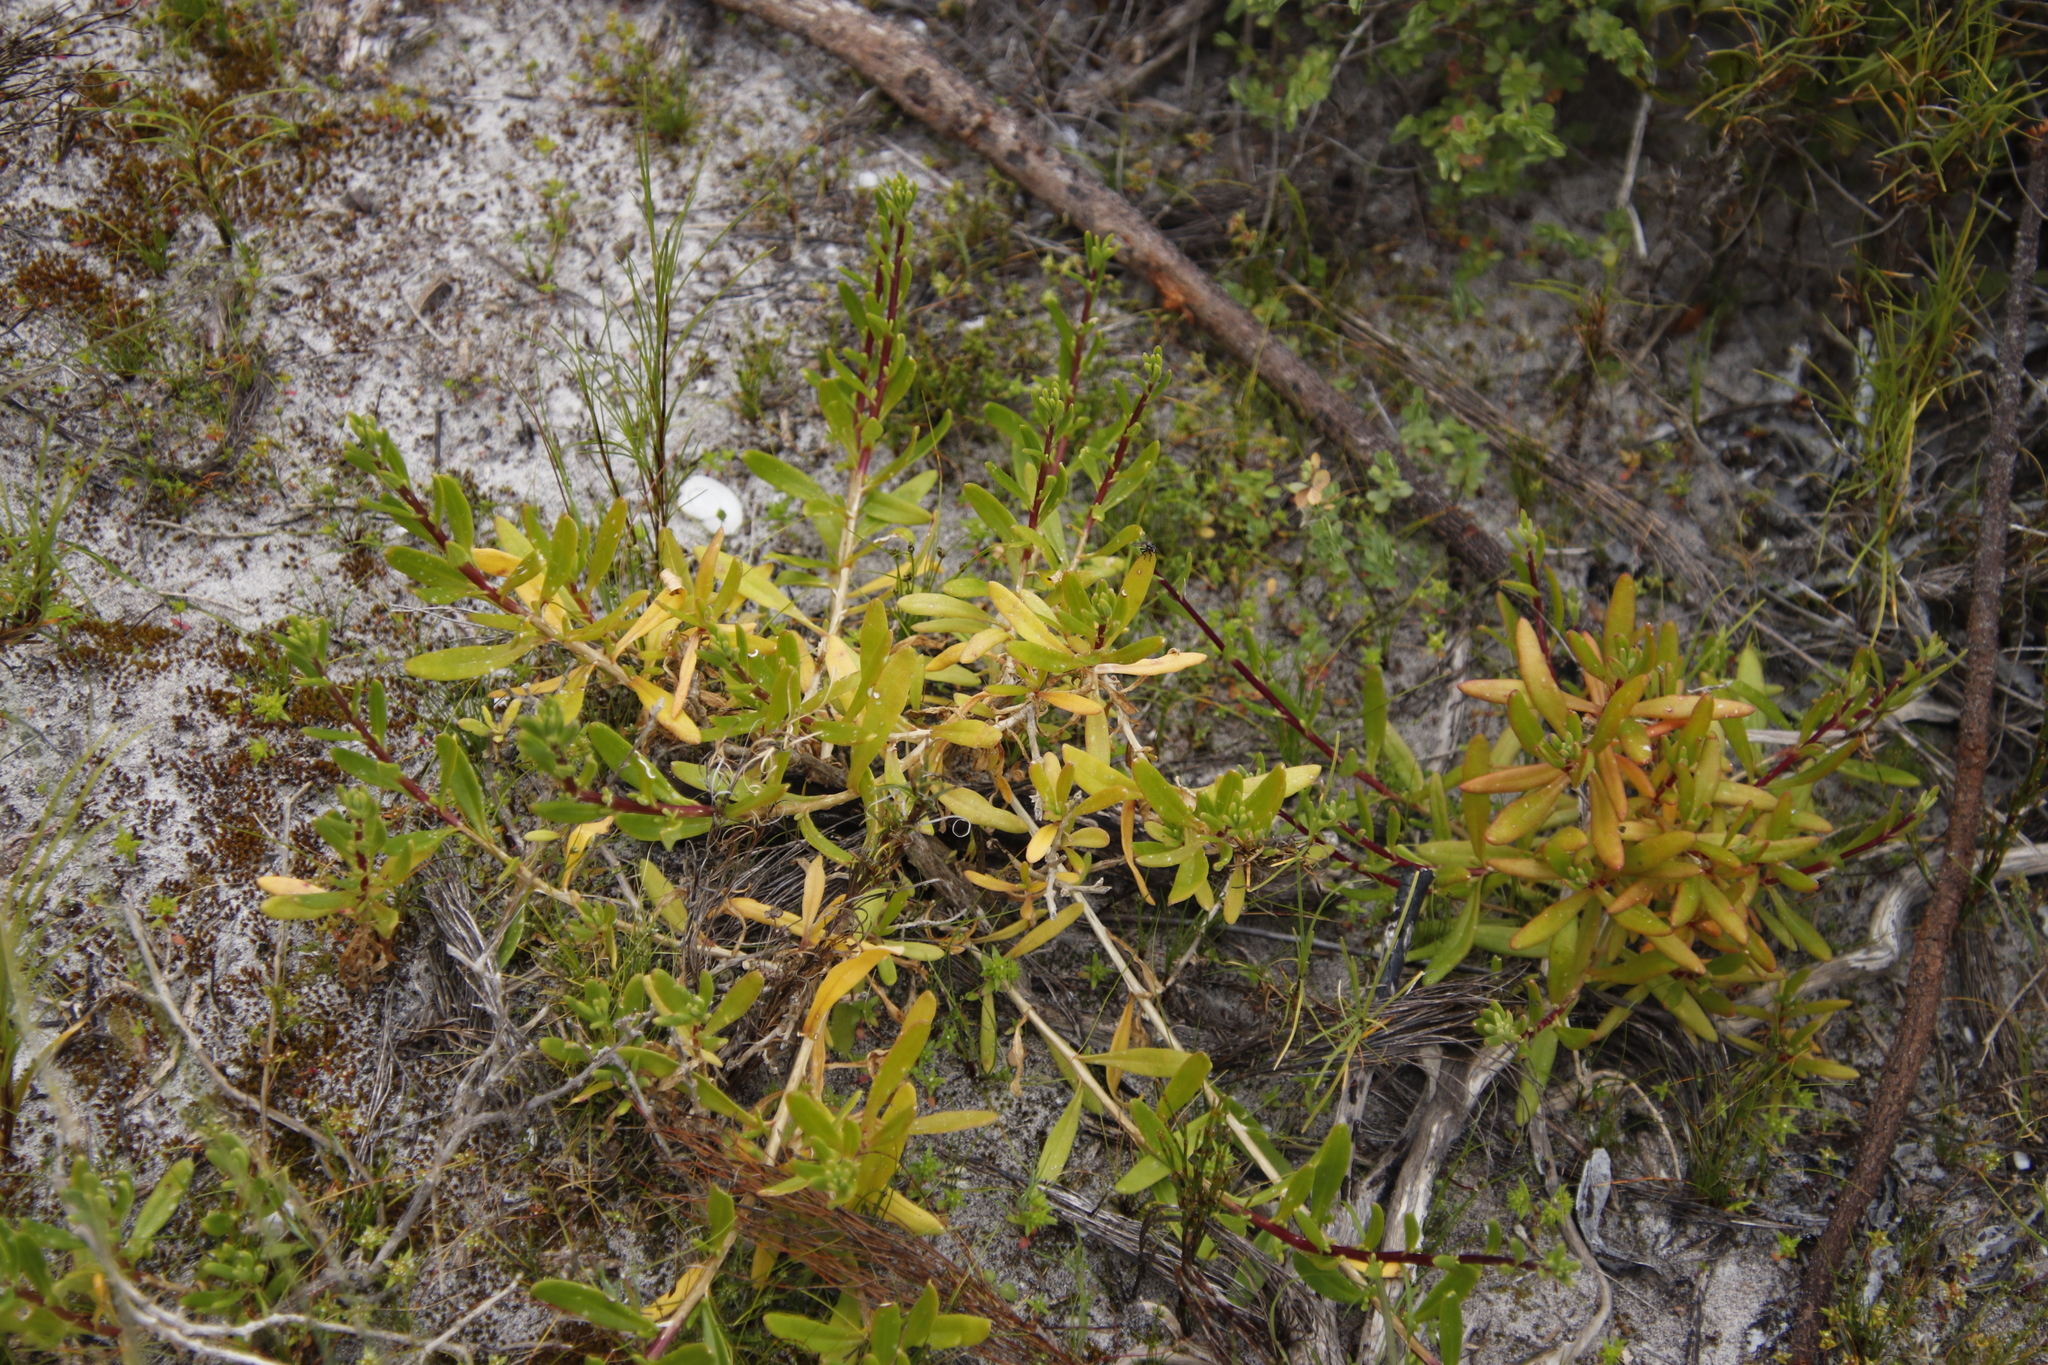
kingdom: Plantae
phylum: Tracheophyta
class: Magnoliopsida
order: Caryophyllales
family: Aizoaceae
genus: Tetragonia
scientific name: Tetragonia fruticosa
